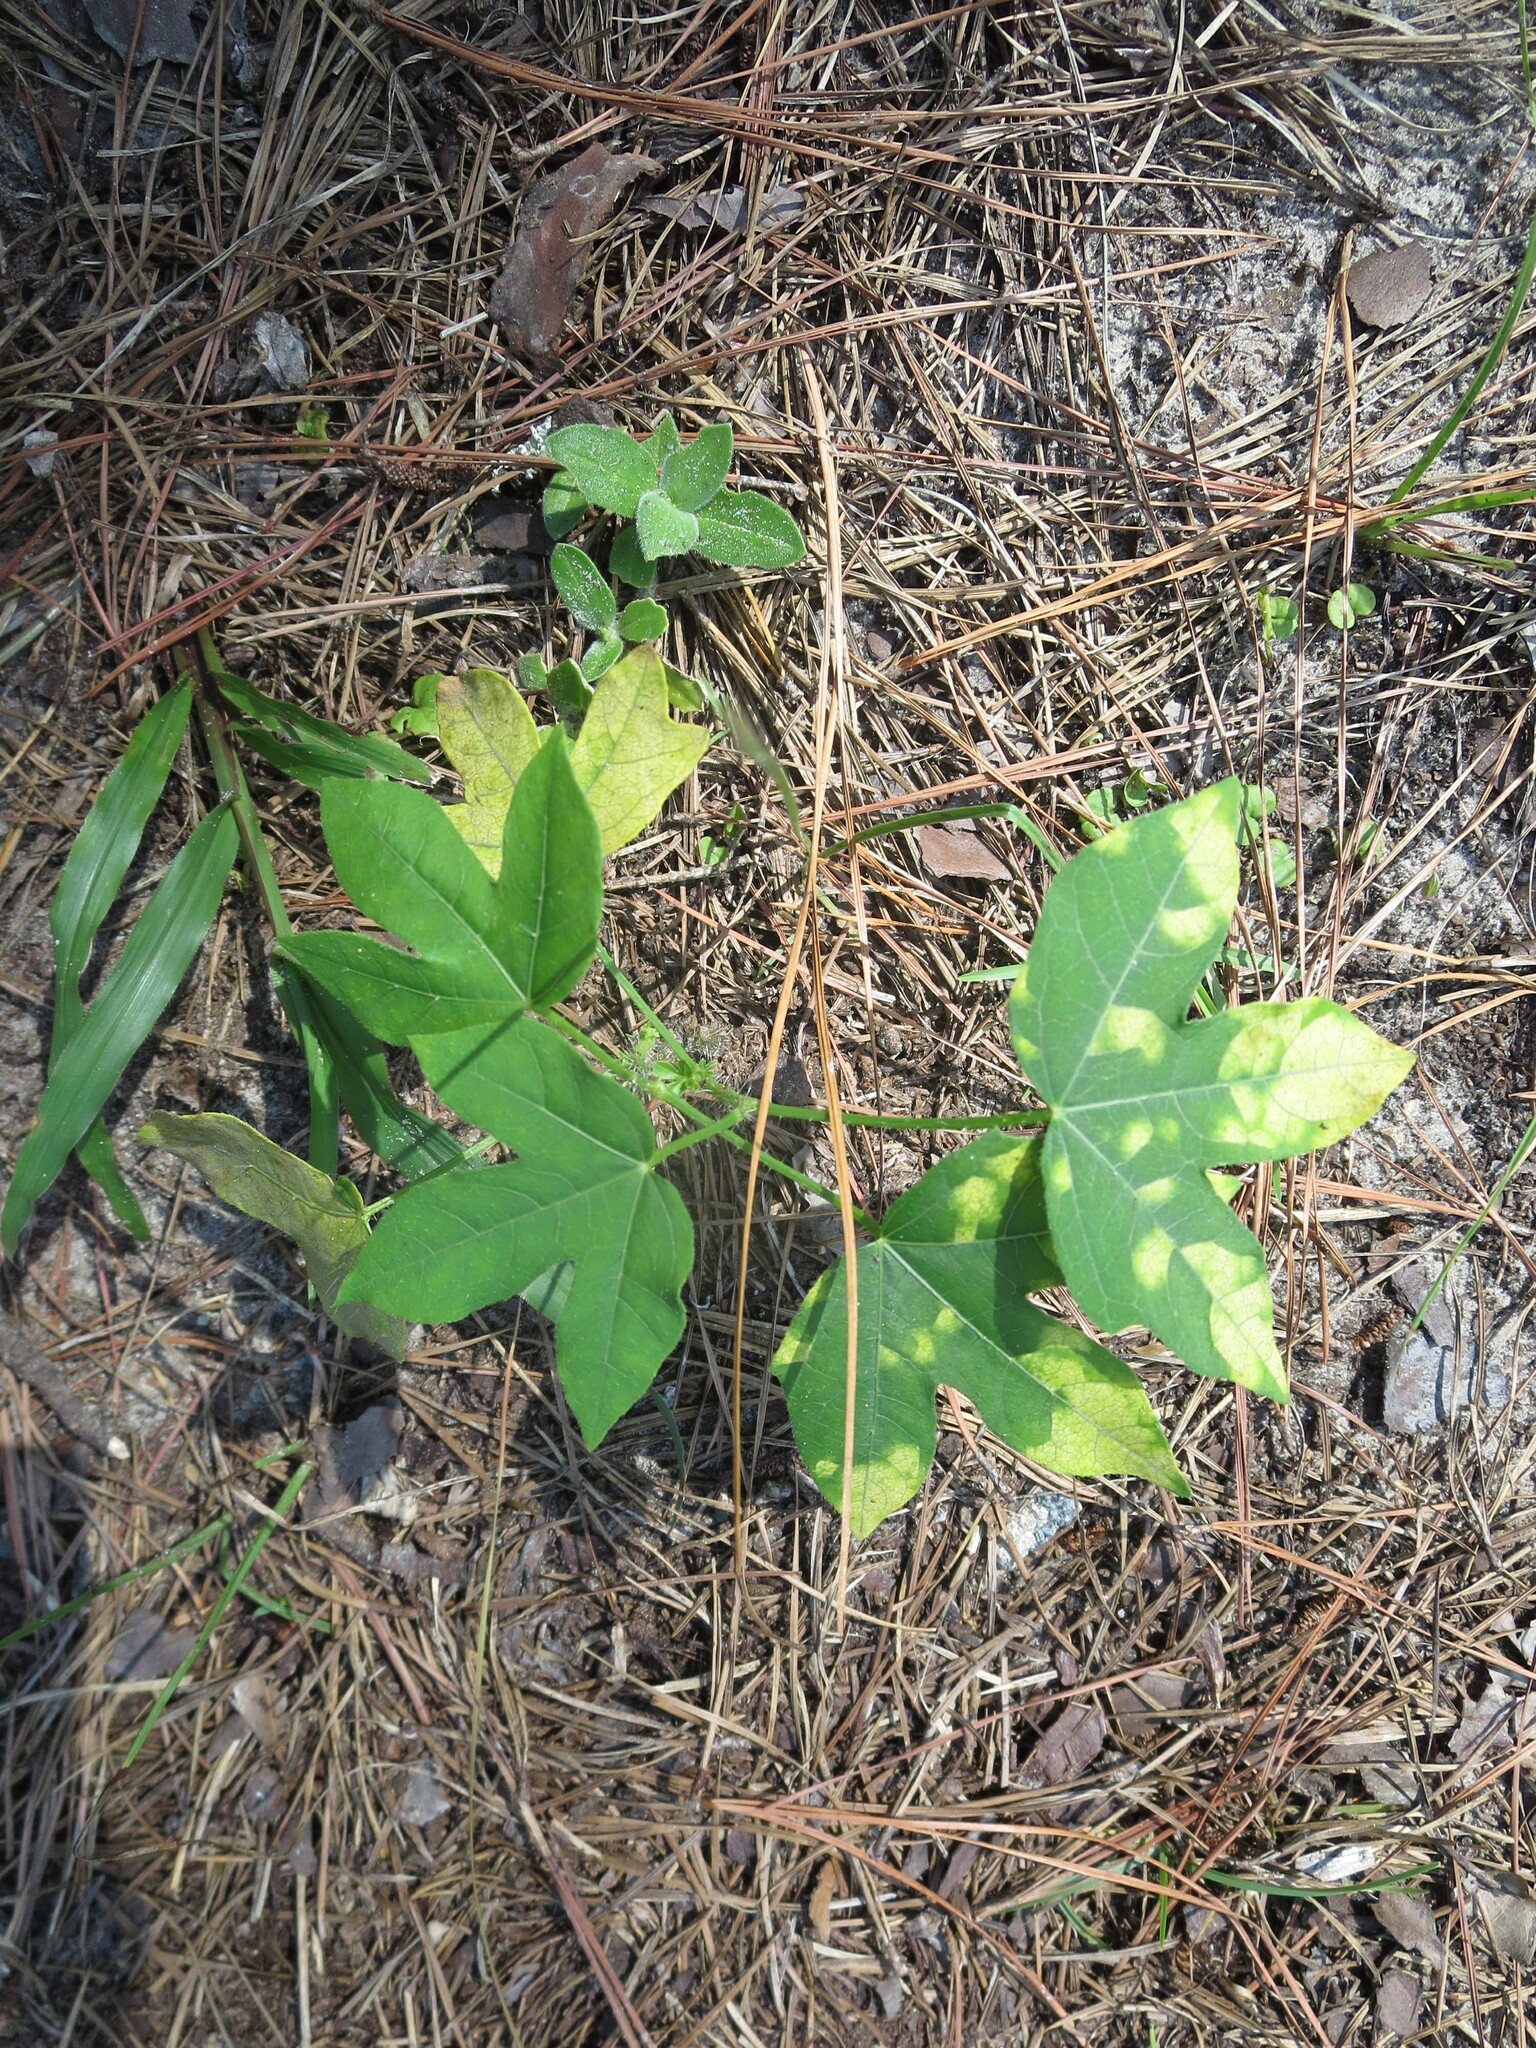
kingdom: Plantae
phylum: Tracheophyta
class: Magnoliopsida
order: Malpighiales
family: Euphorbiaceae
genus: Cnidoscolus
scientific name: Cnidoscolus stimulosus
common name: Bull-nettle
